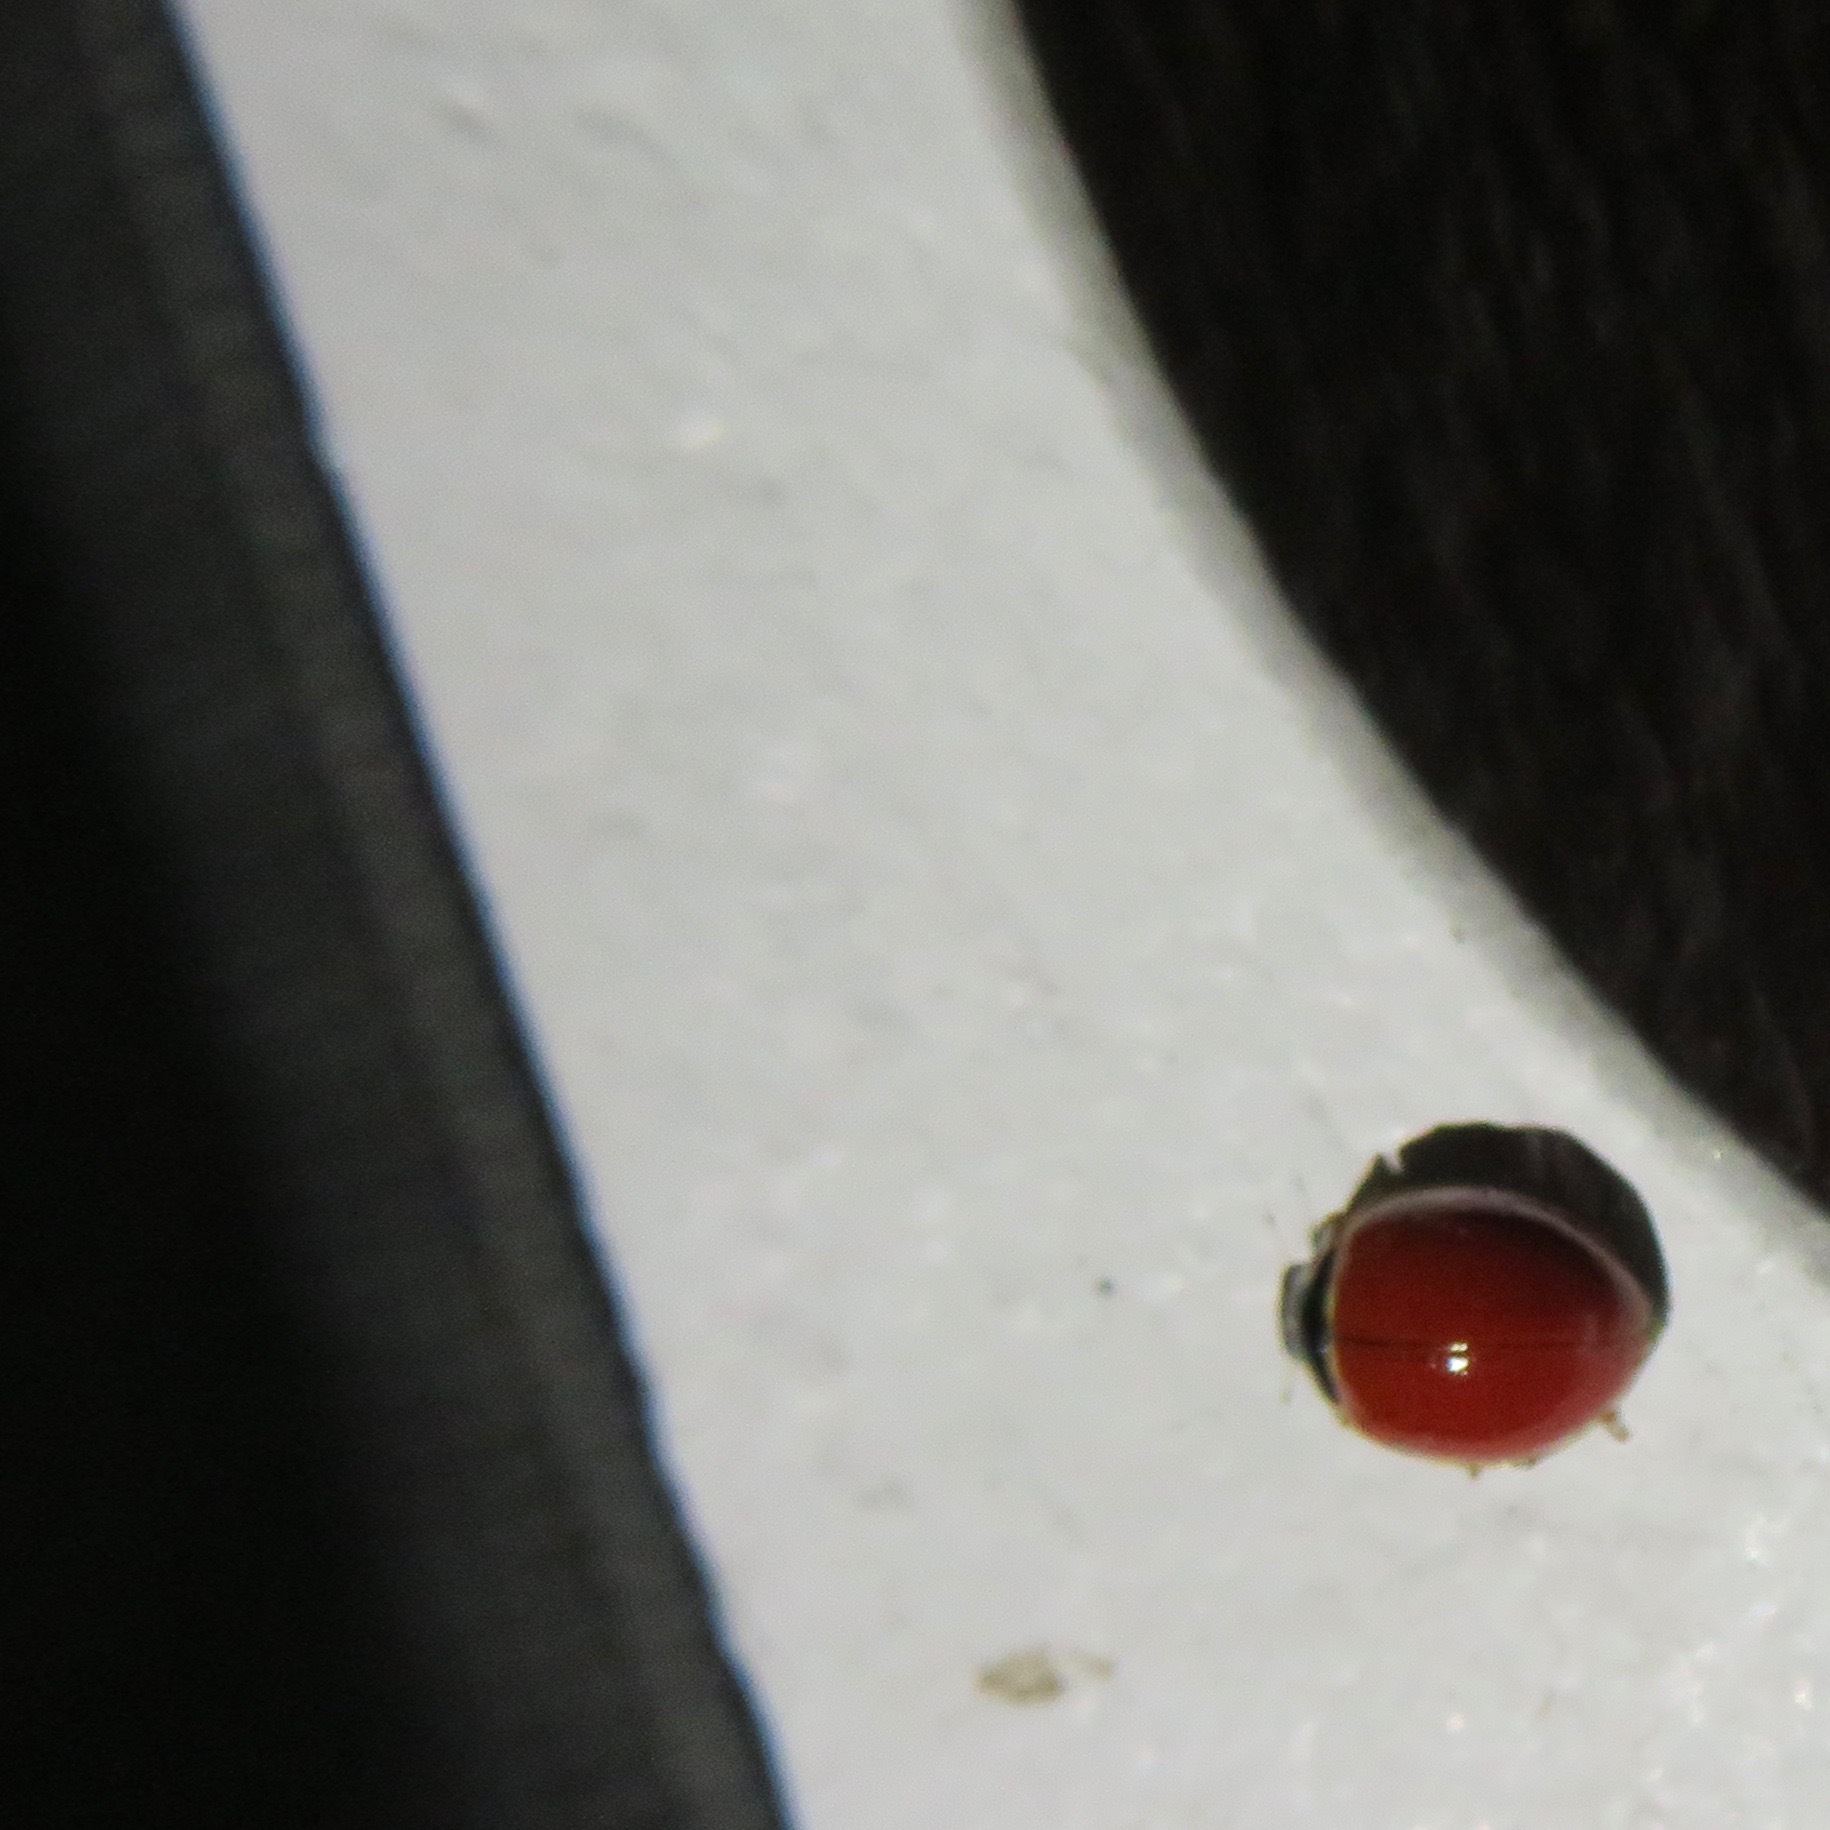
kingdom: Animalia
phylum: Arthropoda
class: Insecta
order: Coleoptera
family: Coccinellidae
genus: Cycloneda
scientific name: Cycloneda polita
